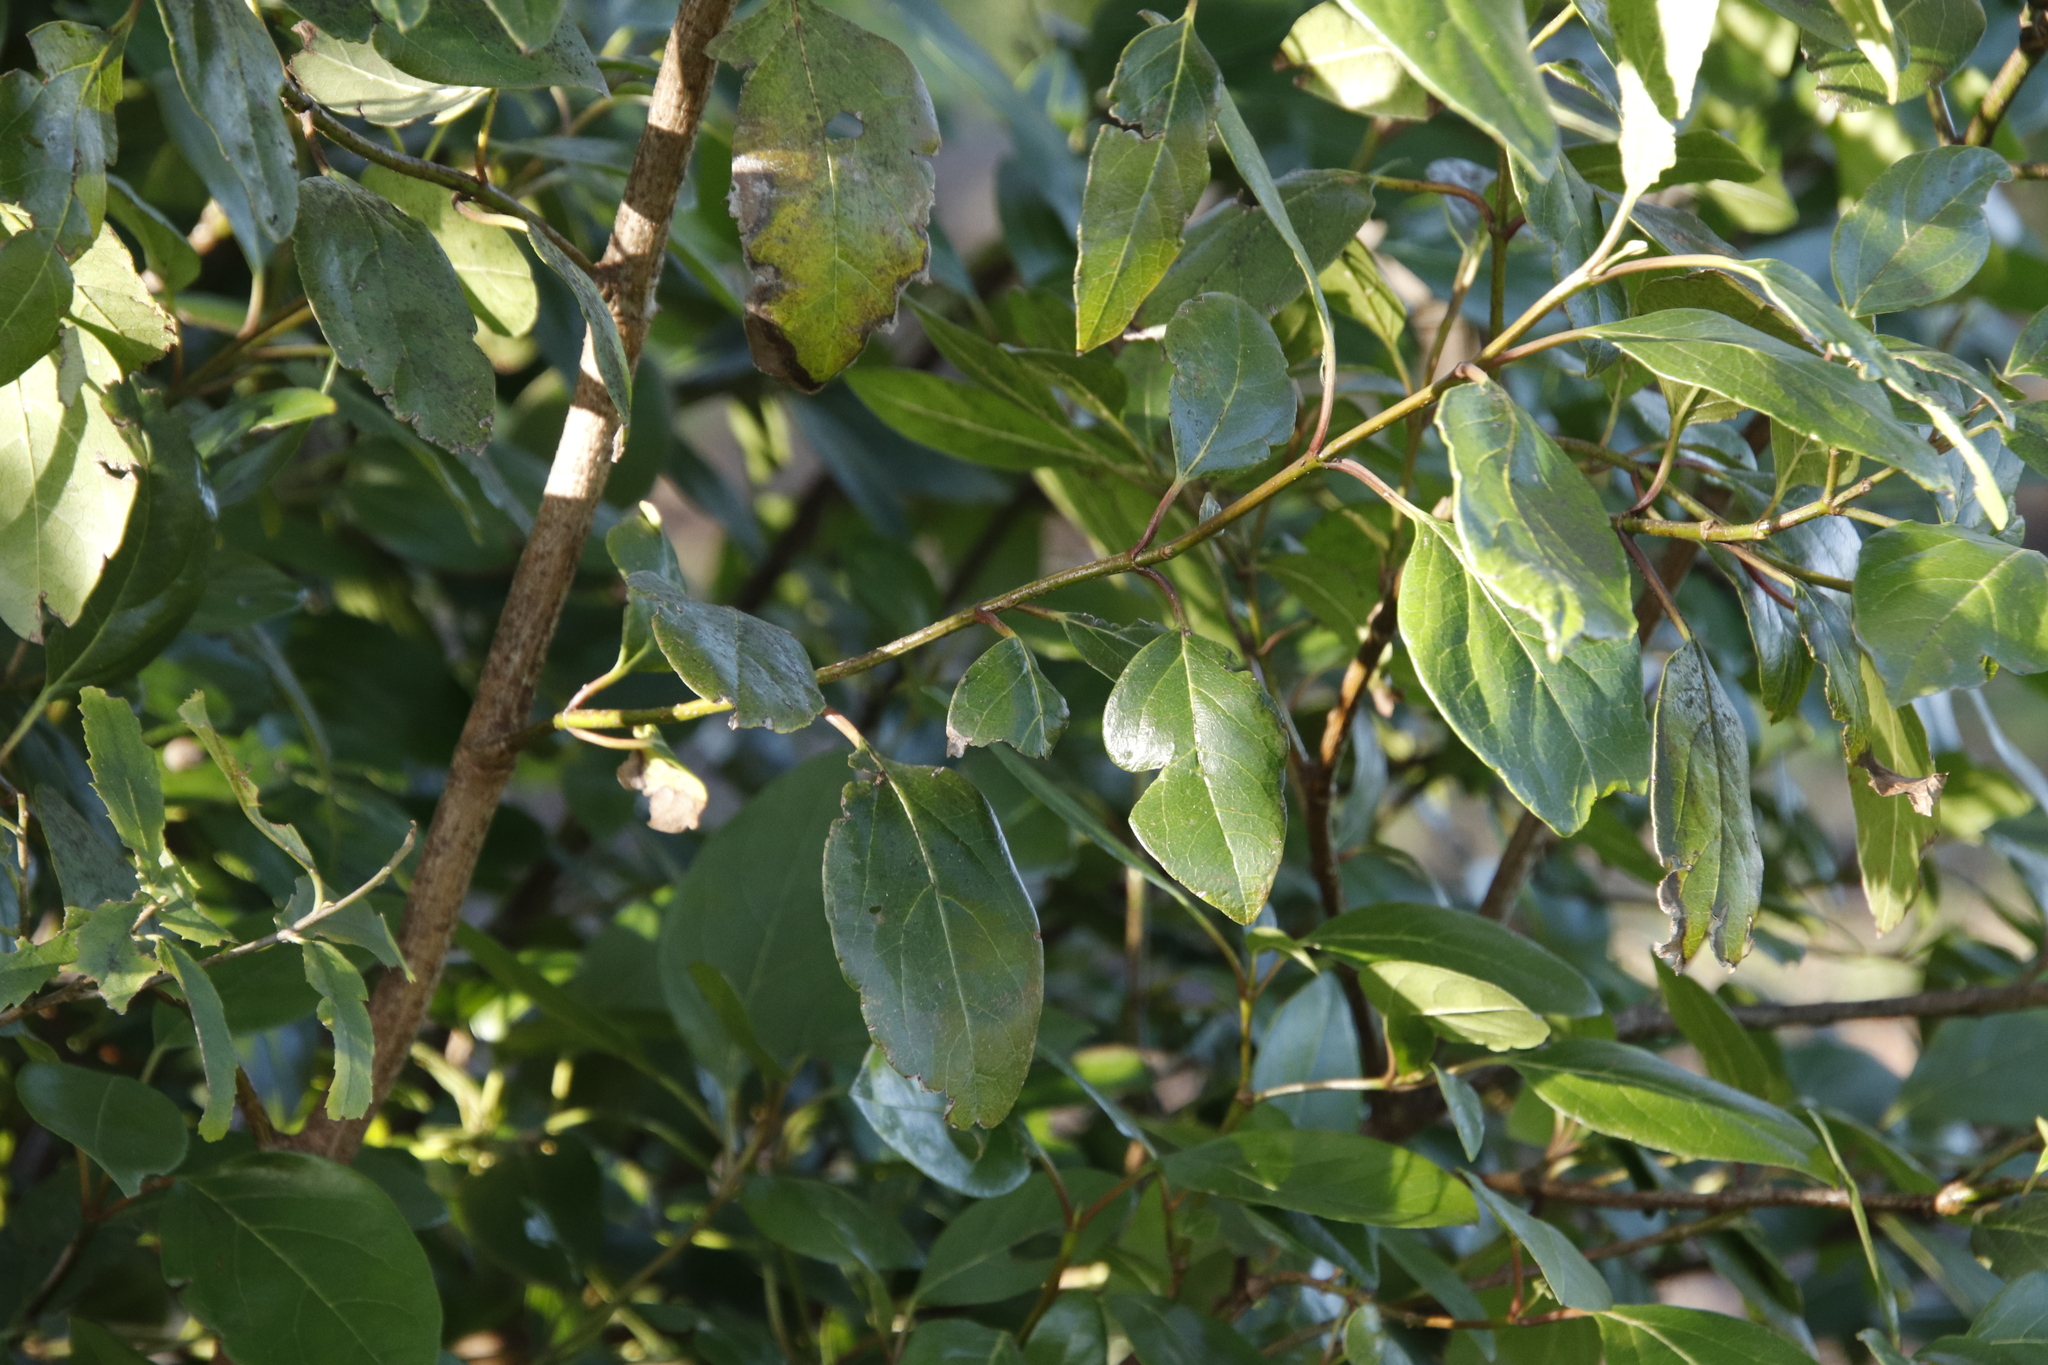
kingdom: Plantae
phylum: Tracheophyta
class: Magnoliopsida
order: Dipsacales
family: Viburnaceae
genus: Viburnum
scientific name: Viburnum tinus
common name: Laurustinus
